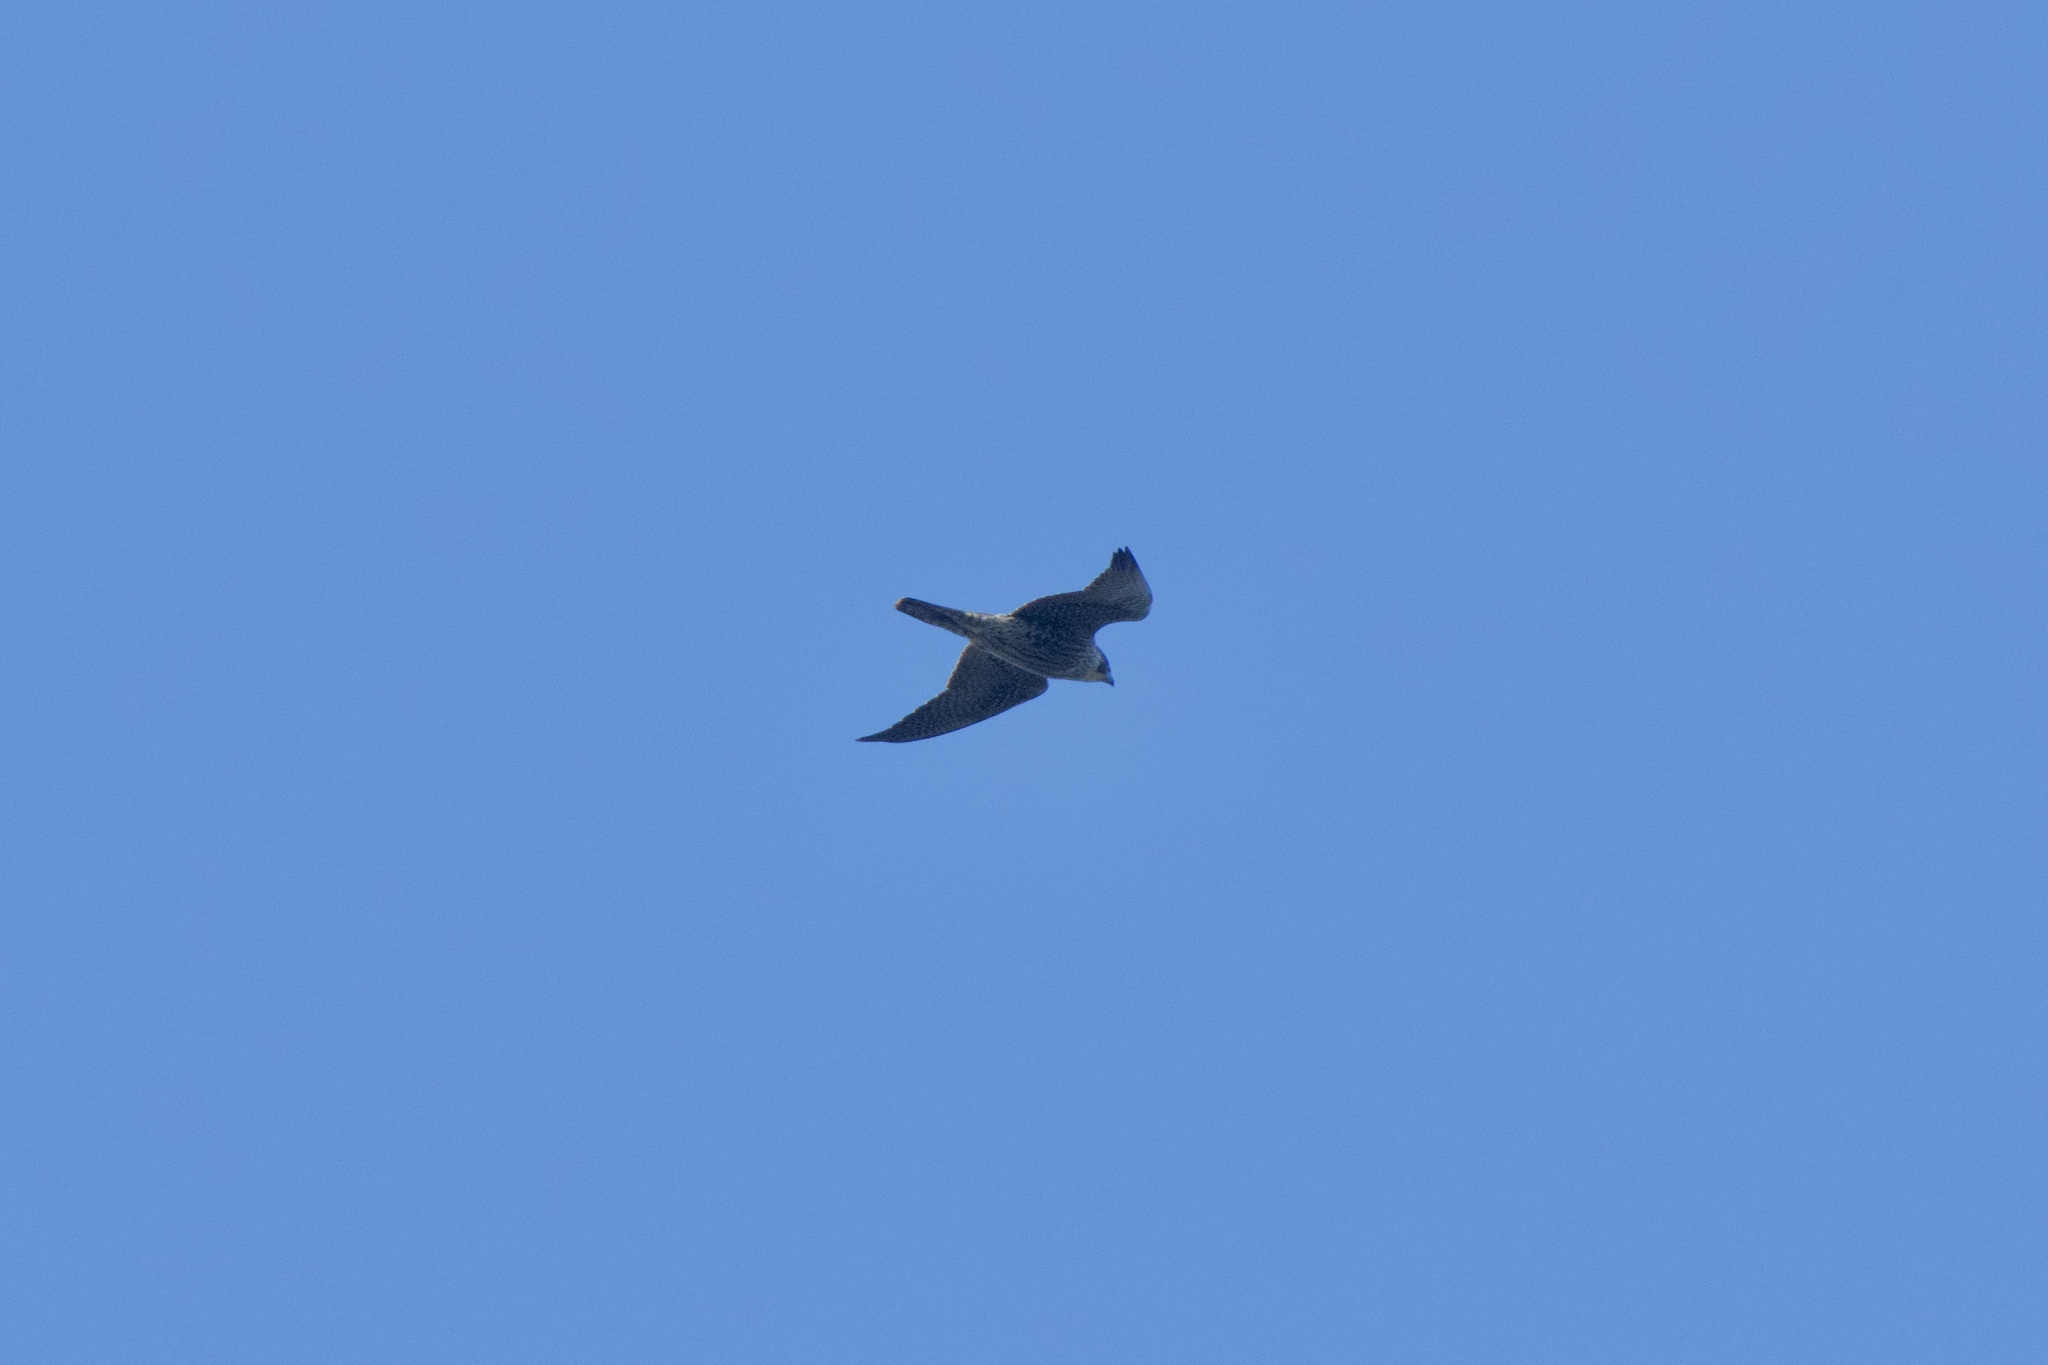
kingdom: Animalia
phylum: Chordata
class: Aves
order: Falconiformes
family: Falconidae
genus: Falco
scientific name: Falco peregrinus
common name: Peregrine falcon
